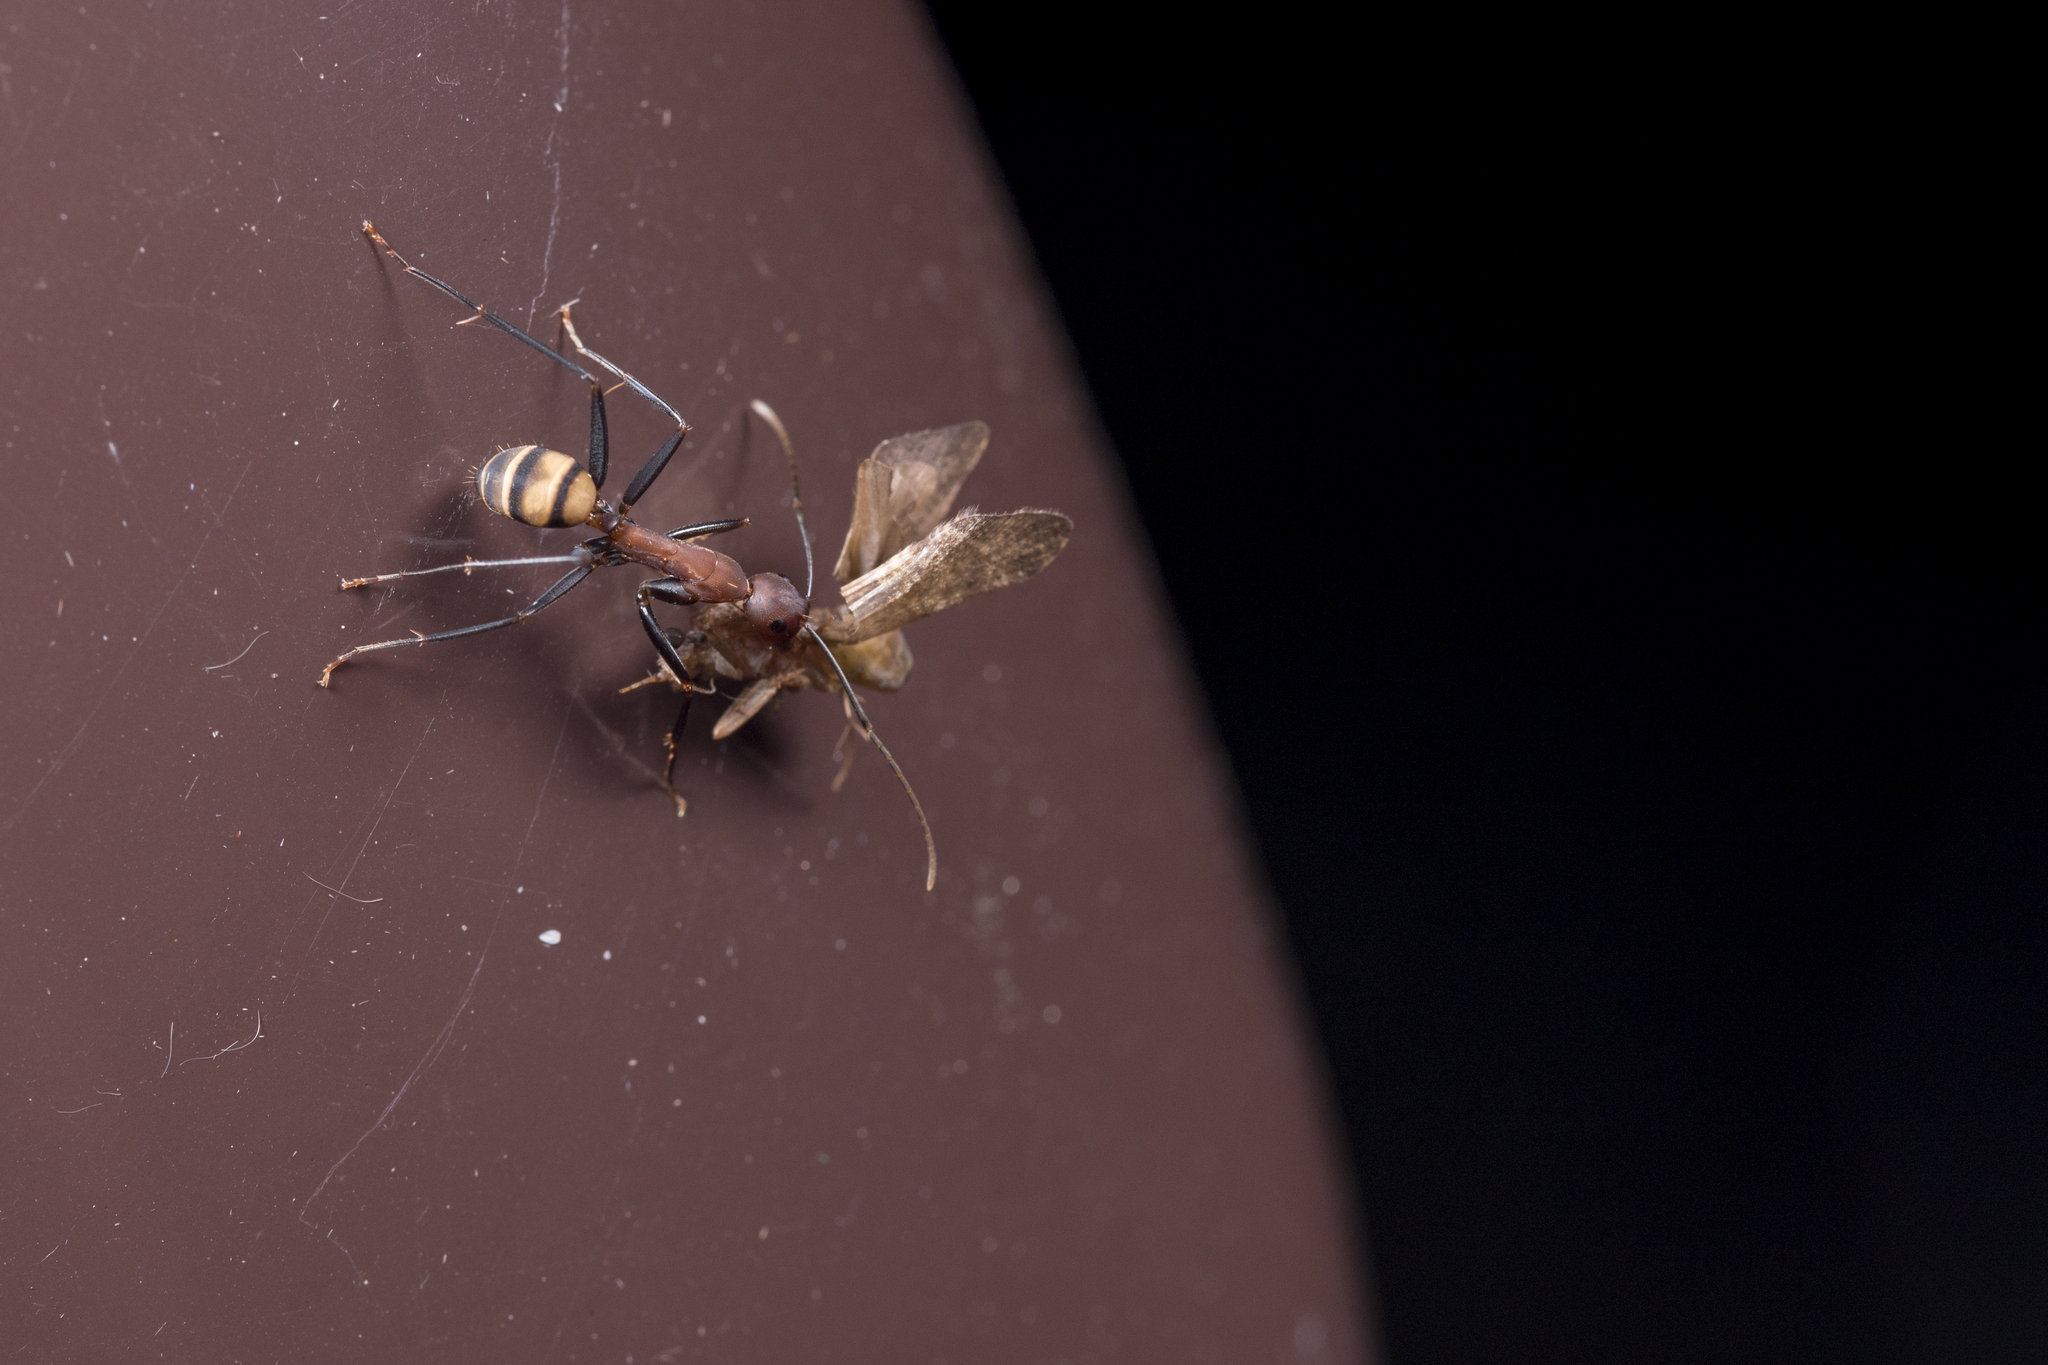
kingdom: Animalia
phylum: Arthropoda
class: Insecta
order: Hymenoptera
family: Formicidae
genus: Camponotus
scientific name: Camponotus habereri
